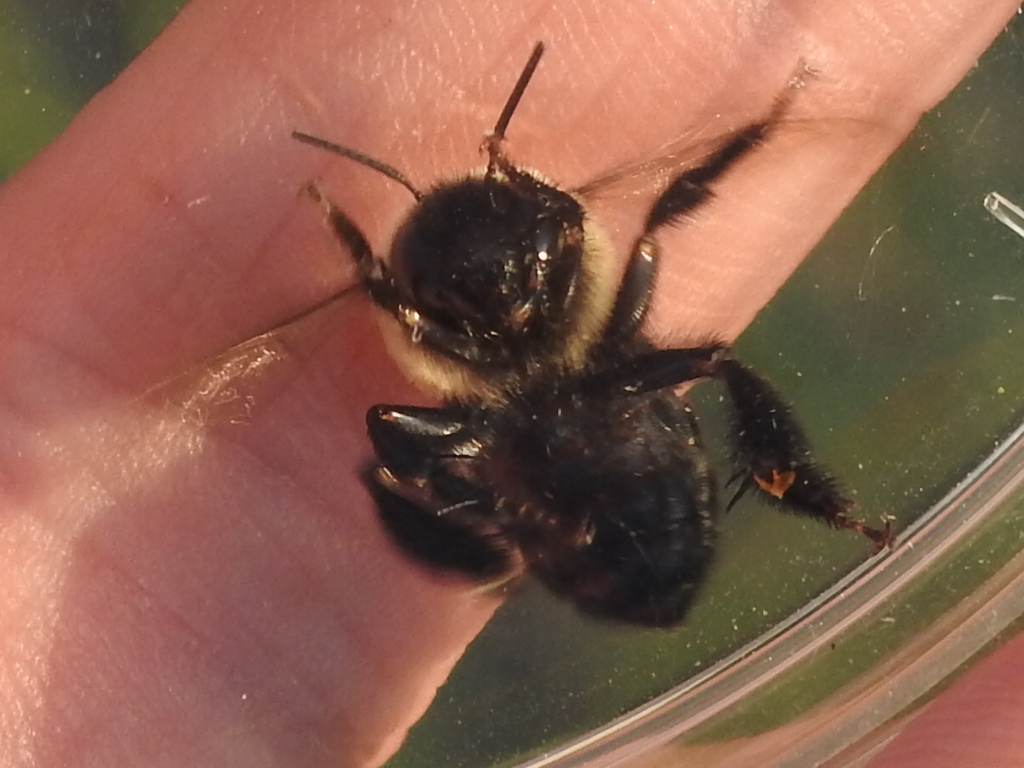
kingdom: Animalia
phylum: Arthropoda
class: Insecta
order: Hymenoptera
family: Apidae
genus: Anthophora
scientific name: Anthophora abrupta
